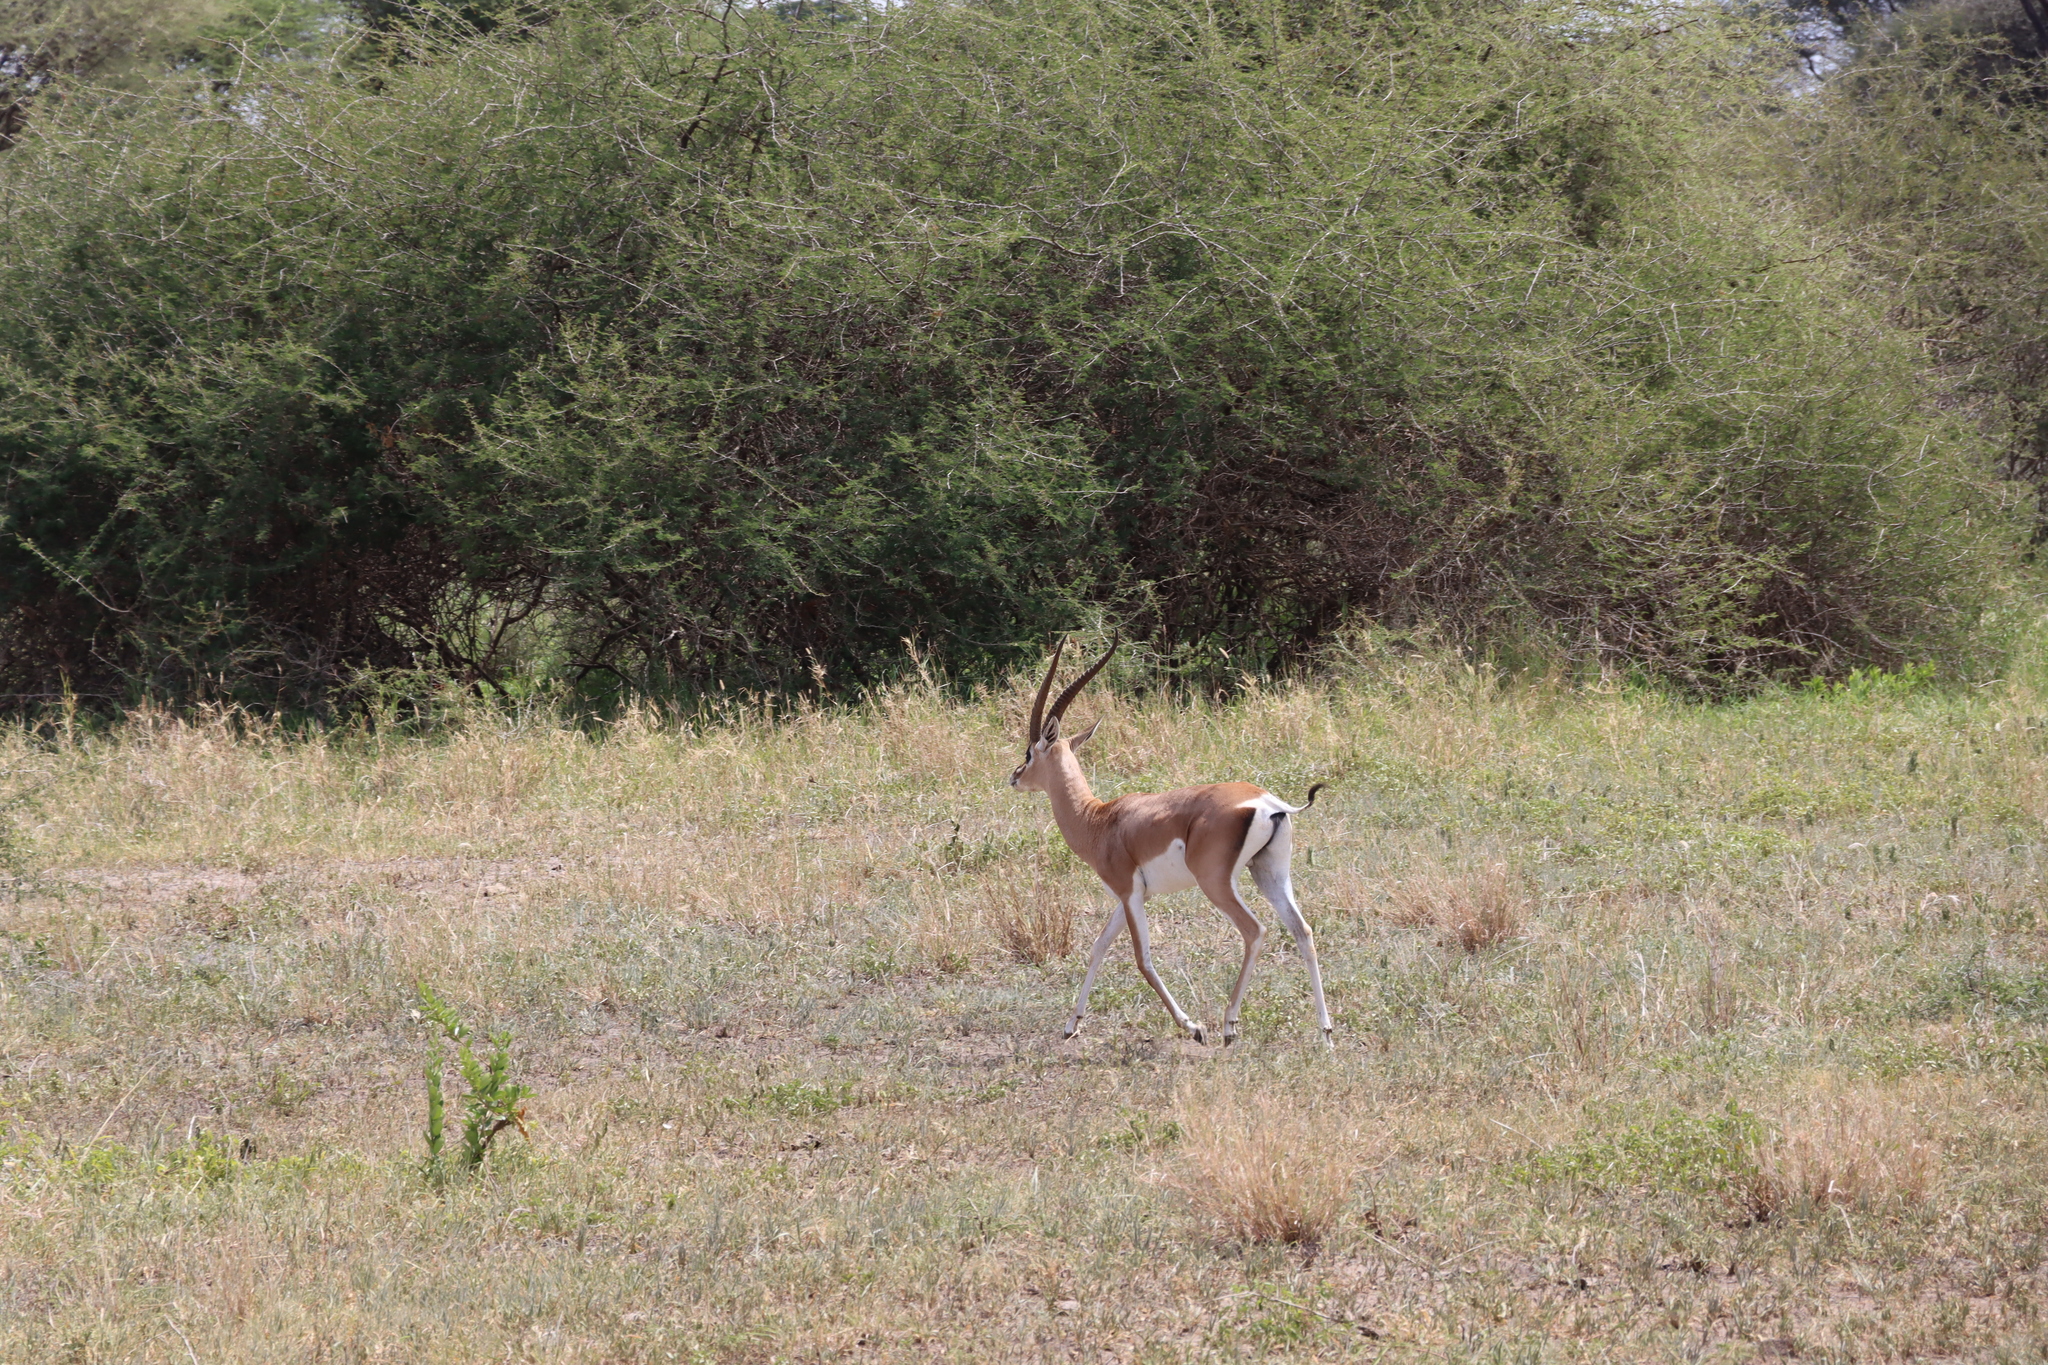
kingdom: Animalia
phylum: Chordata
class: Mammalia
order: Artiodactyla
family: Bovidae
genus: Nanger
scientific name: Nanger granti
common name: Grant's gazelle
